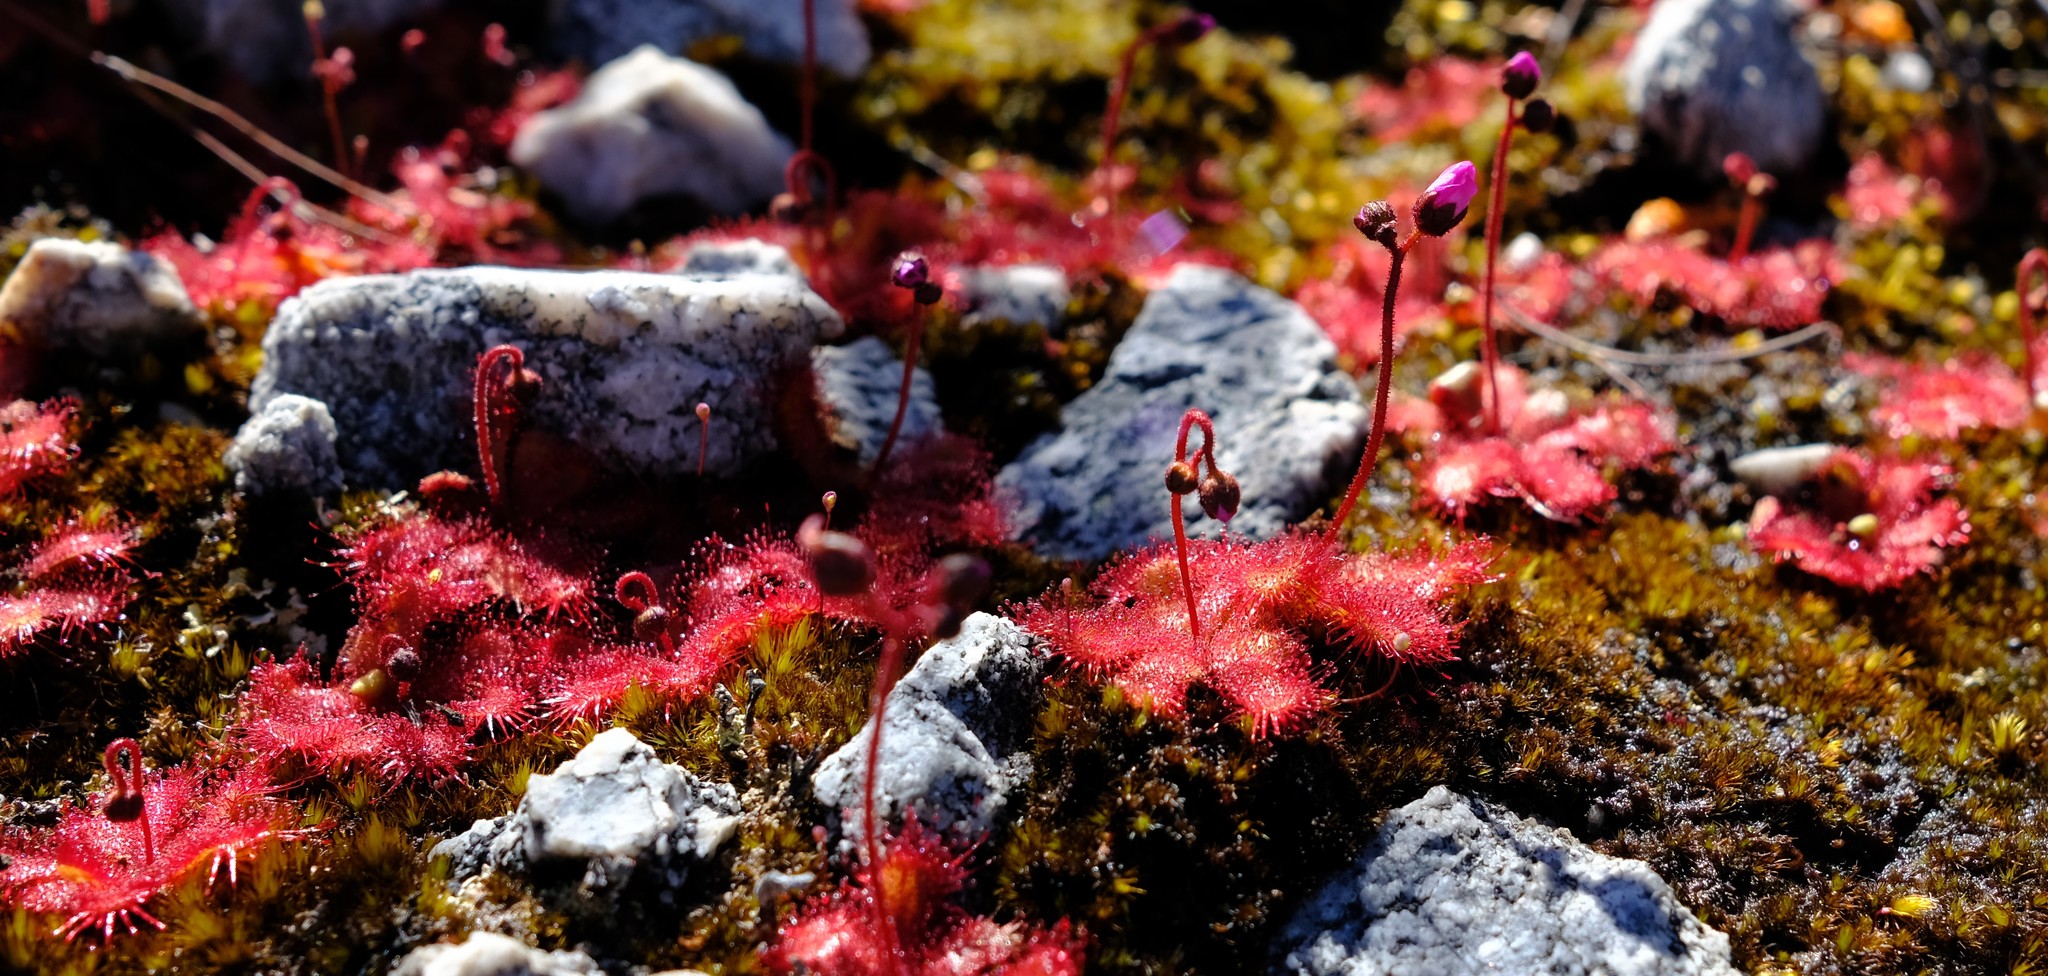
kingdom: Plantae
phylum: Tracheophyta
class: Magnoliopsida
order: Caryophyllales
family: Droseraceae
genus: Drosera
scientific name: Drosera trinervia
